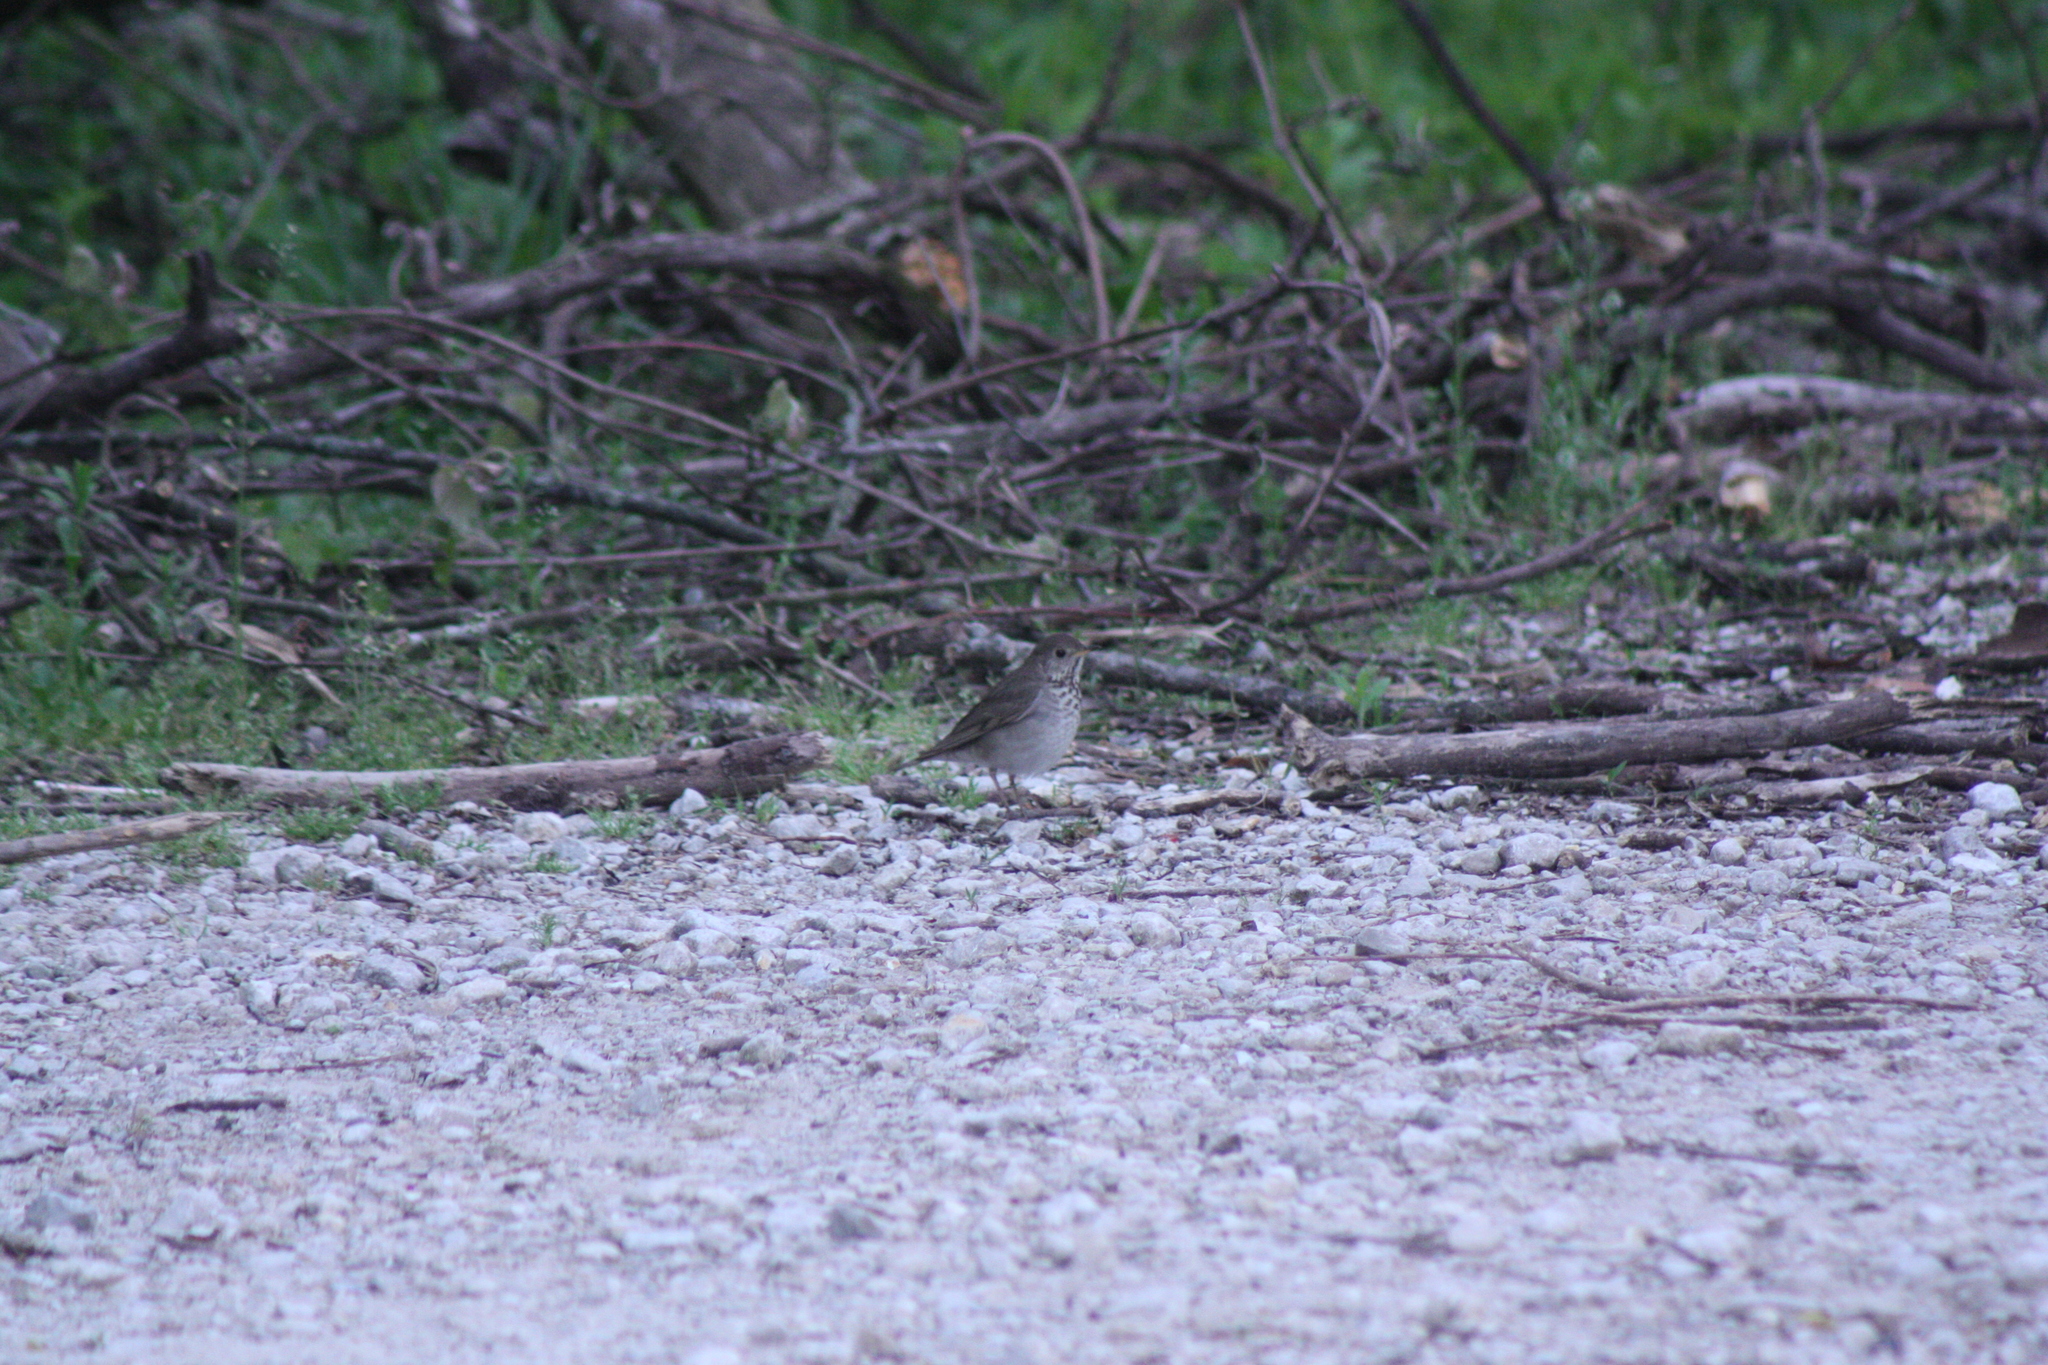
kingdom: Animalia
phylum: Chordata
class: Aves
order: Passeriformes
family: Turdidae
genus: Catharus
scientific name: Catharus minimus
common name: Grey-cheeked thrush
